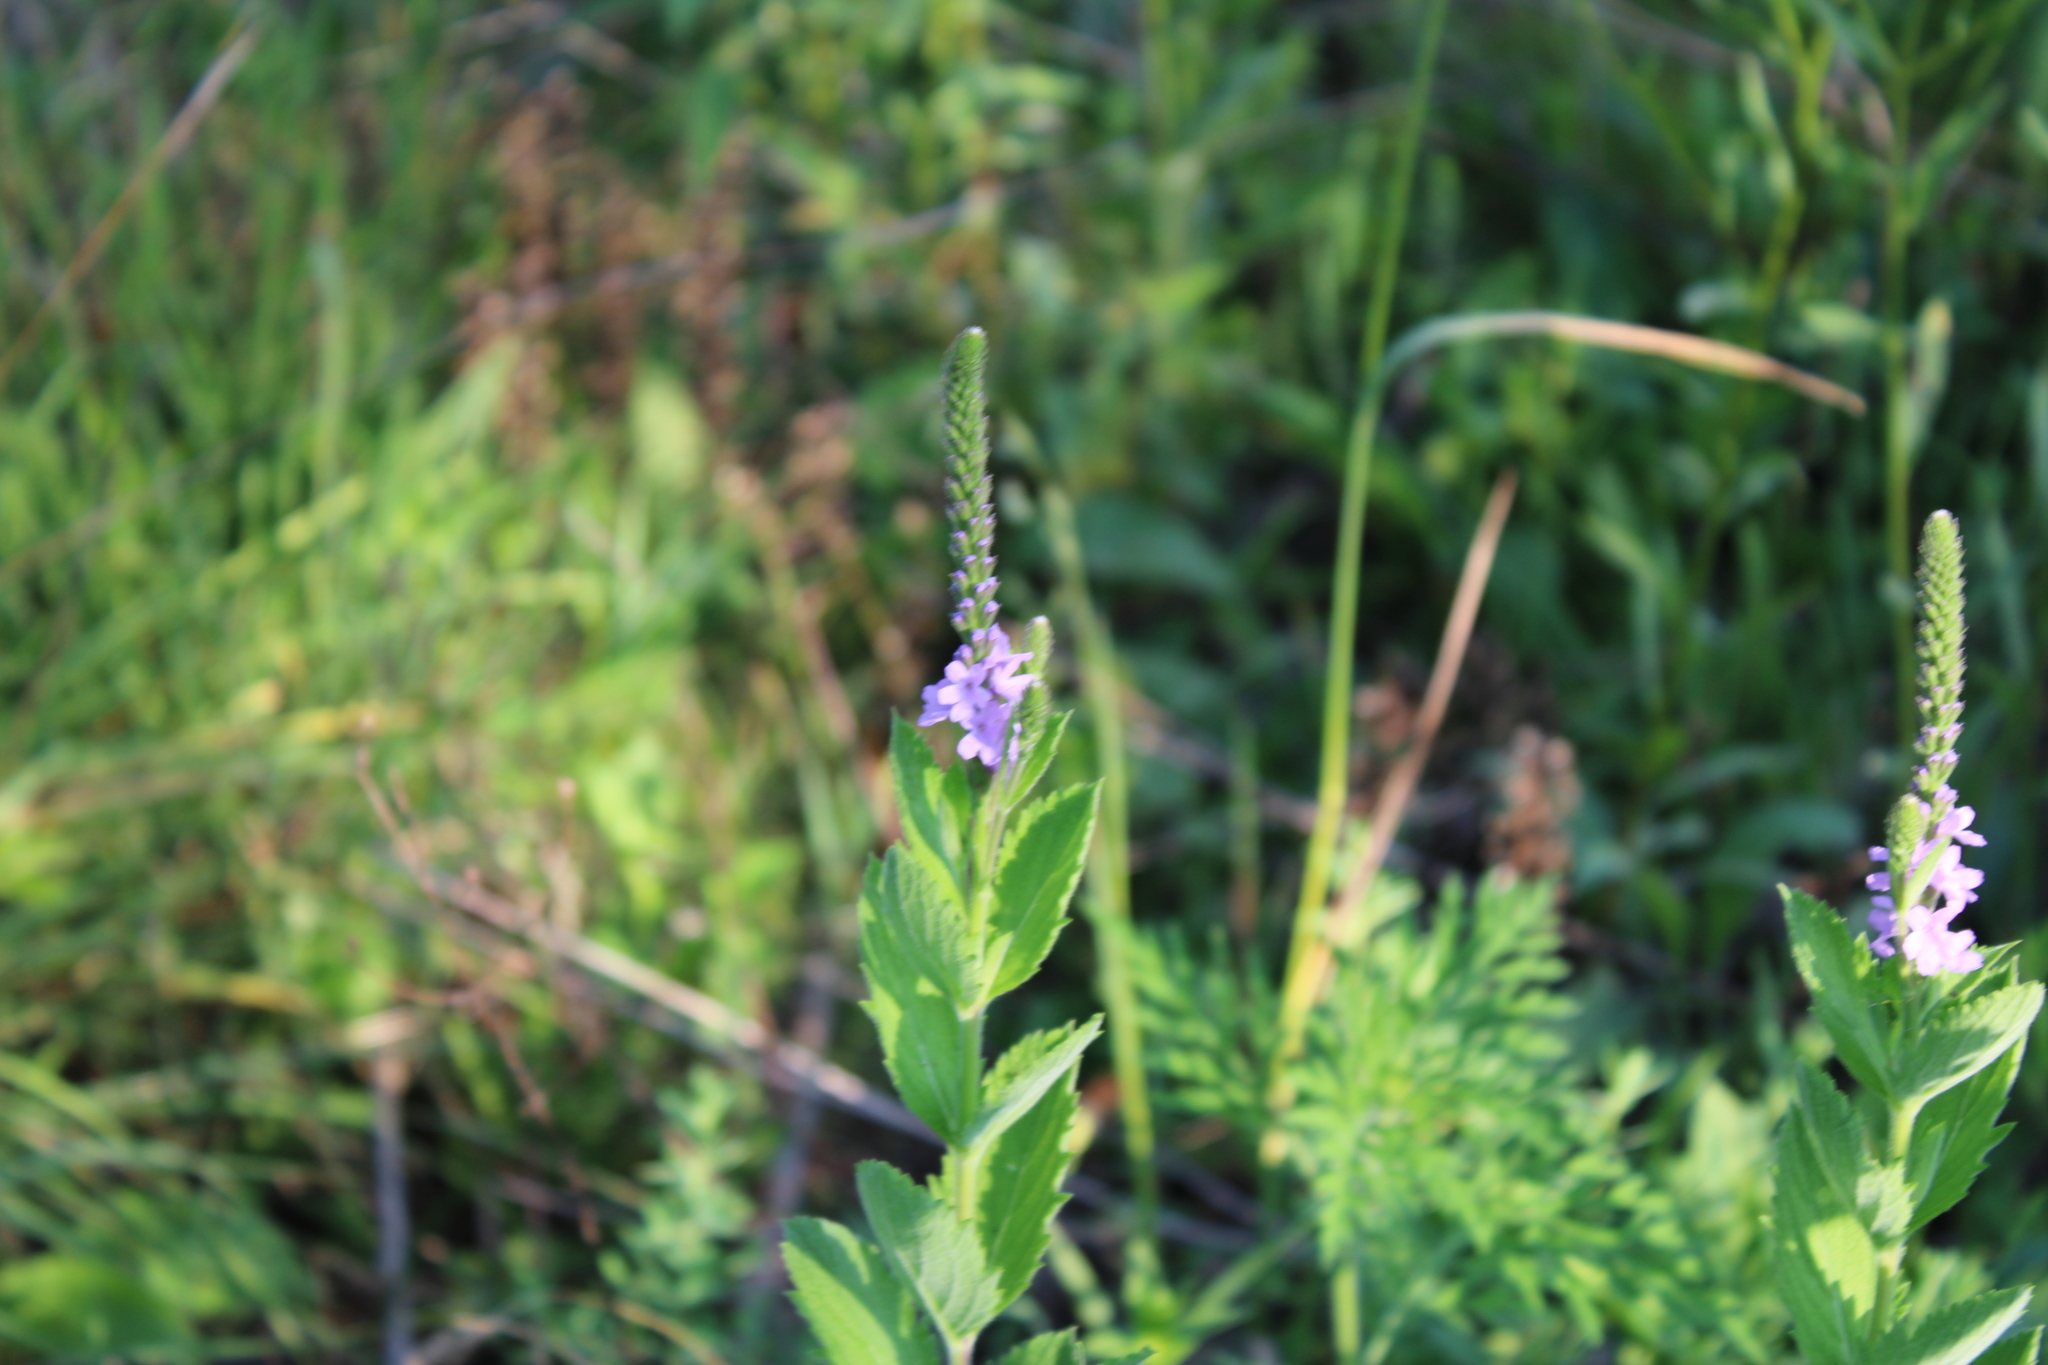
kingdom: Plantae
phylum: Tracheophyta
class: Magnoliopsida
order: Lamiales
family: Verbenaceae
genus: Verbena
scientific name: Verbena stricta
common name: Hoary vervain
